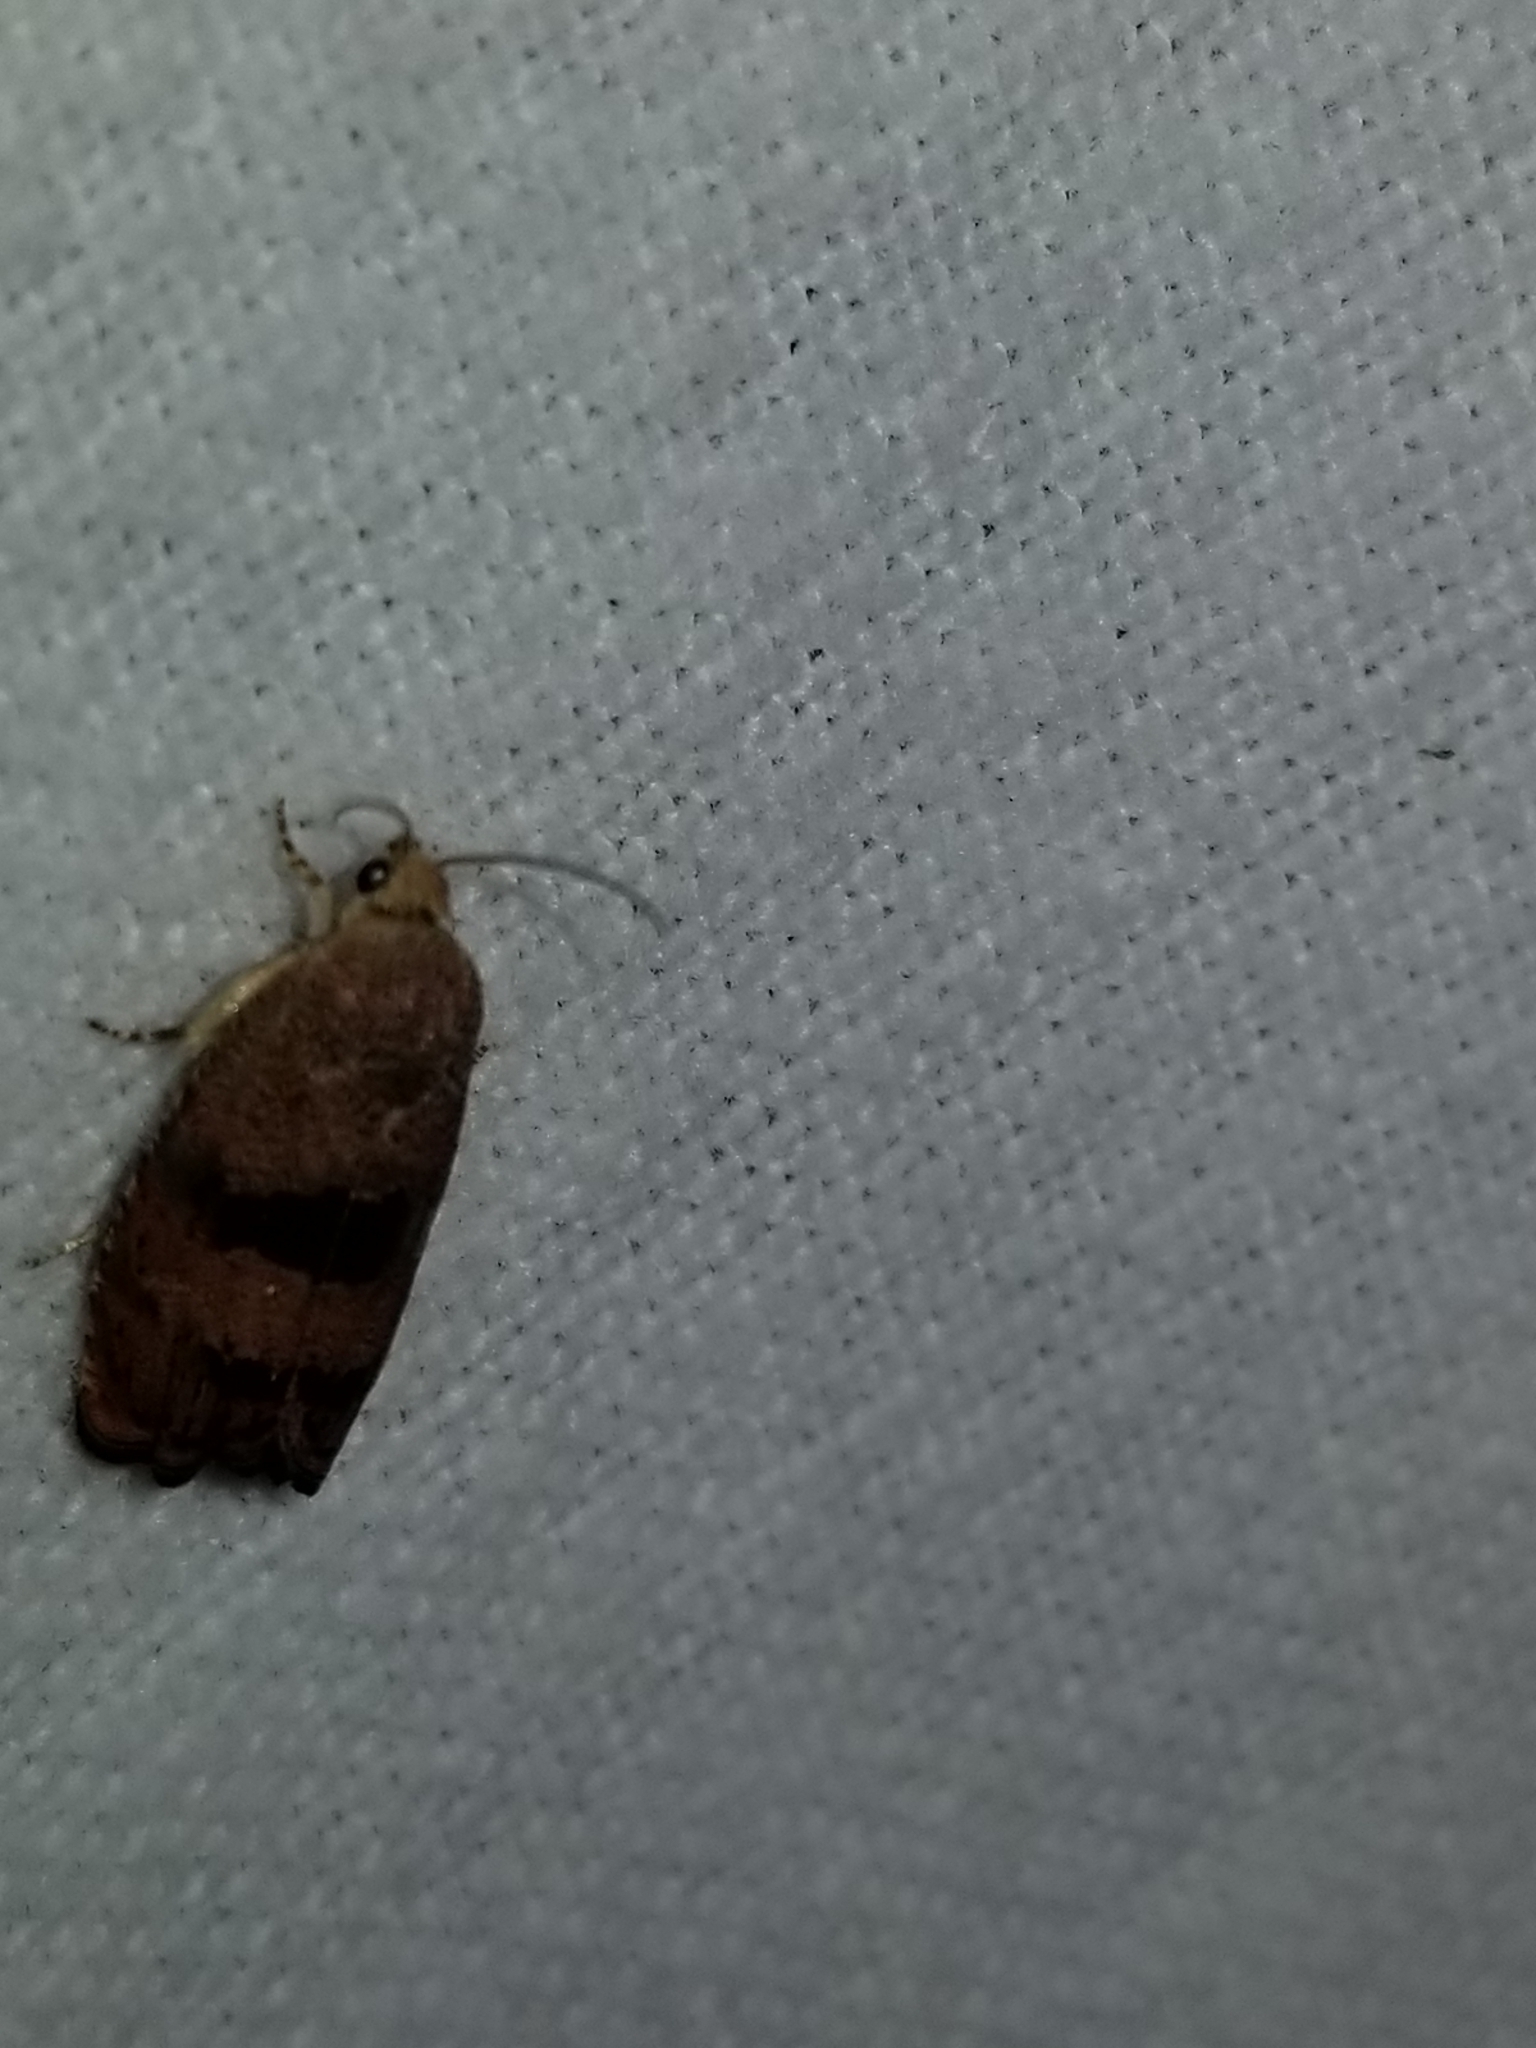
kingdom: Animalia
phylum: Arthropoda
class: Insecta
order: Lepidoptera
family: Tortricidae
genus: Cydia
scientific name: Cydia latiferreana
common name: Filbertworm moth
